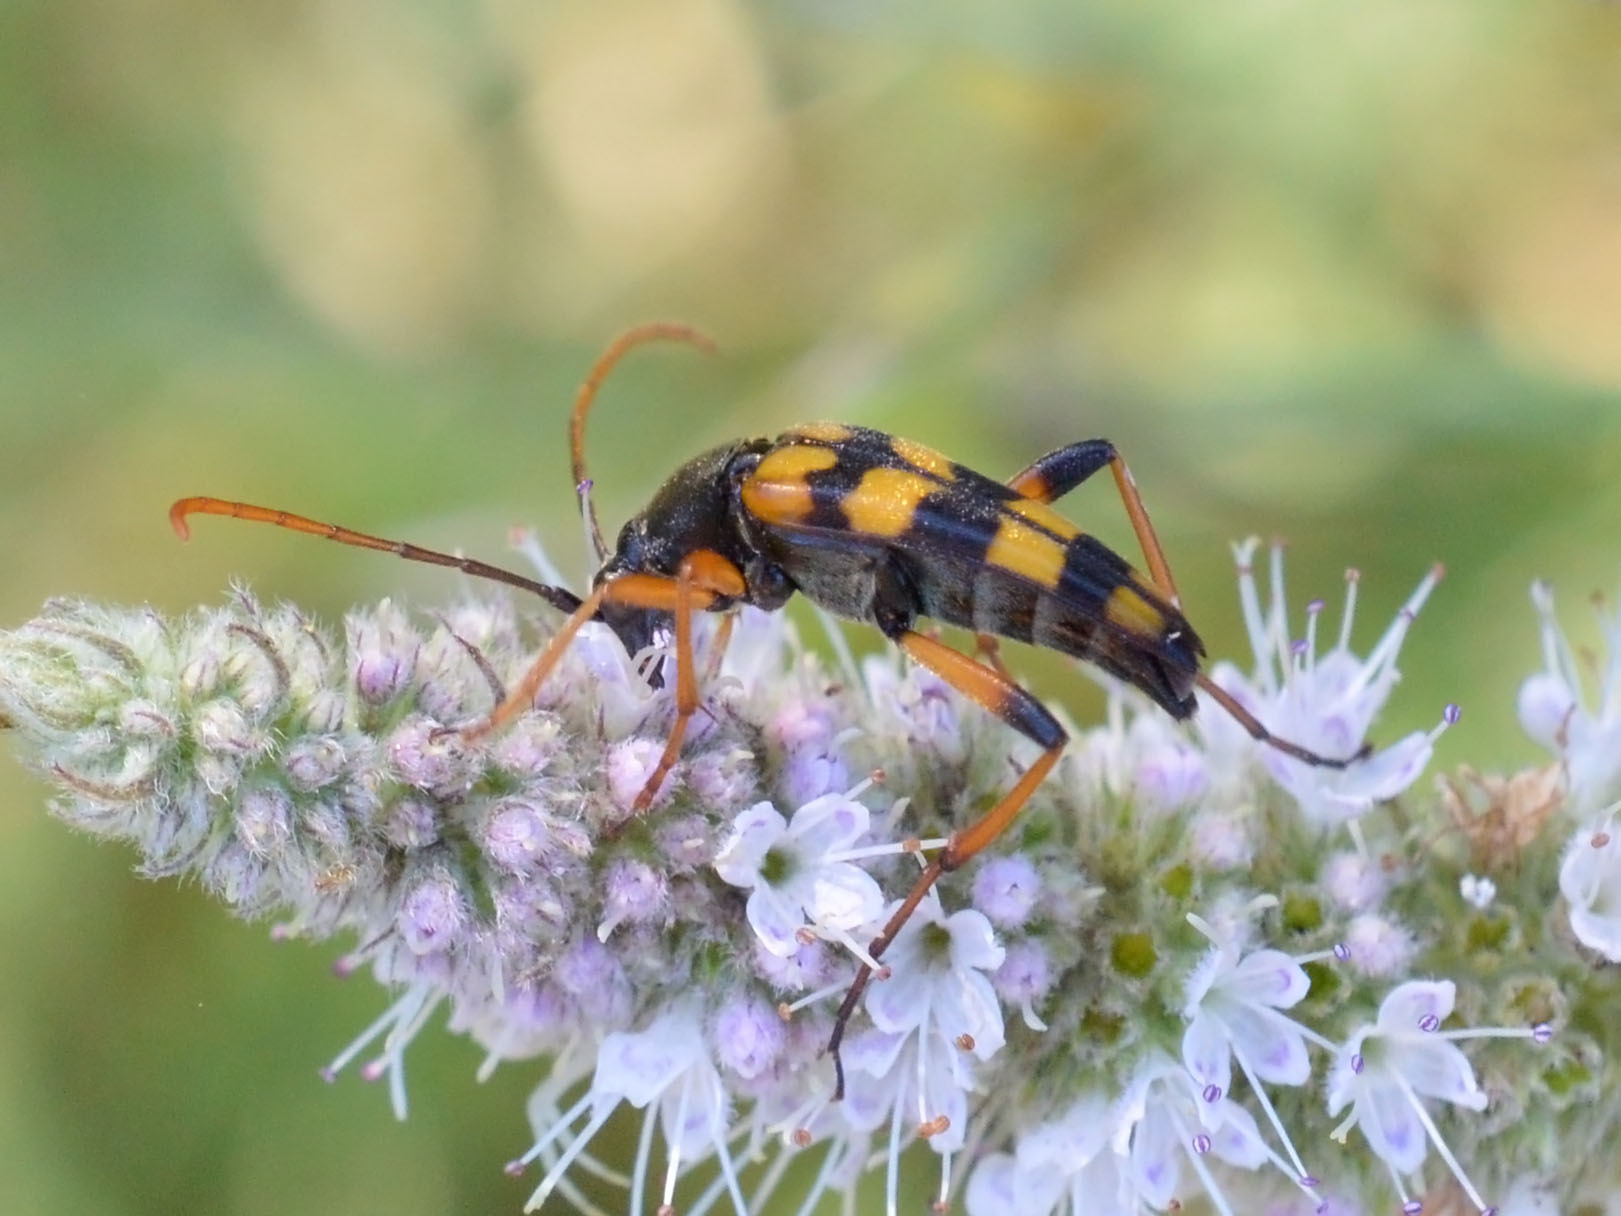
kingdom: Animalia
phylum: Arthropoda
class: Insecta
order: Coleoptera
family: Cerambycidae
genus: Strangalia
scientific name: Strangalia attenuata
